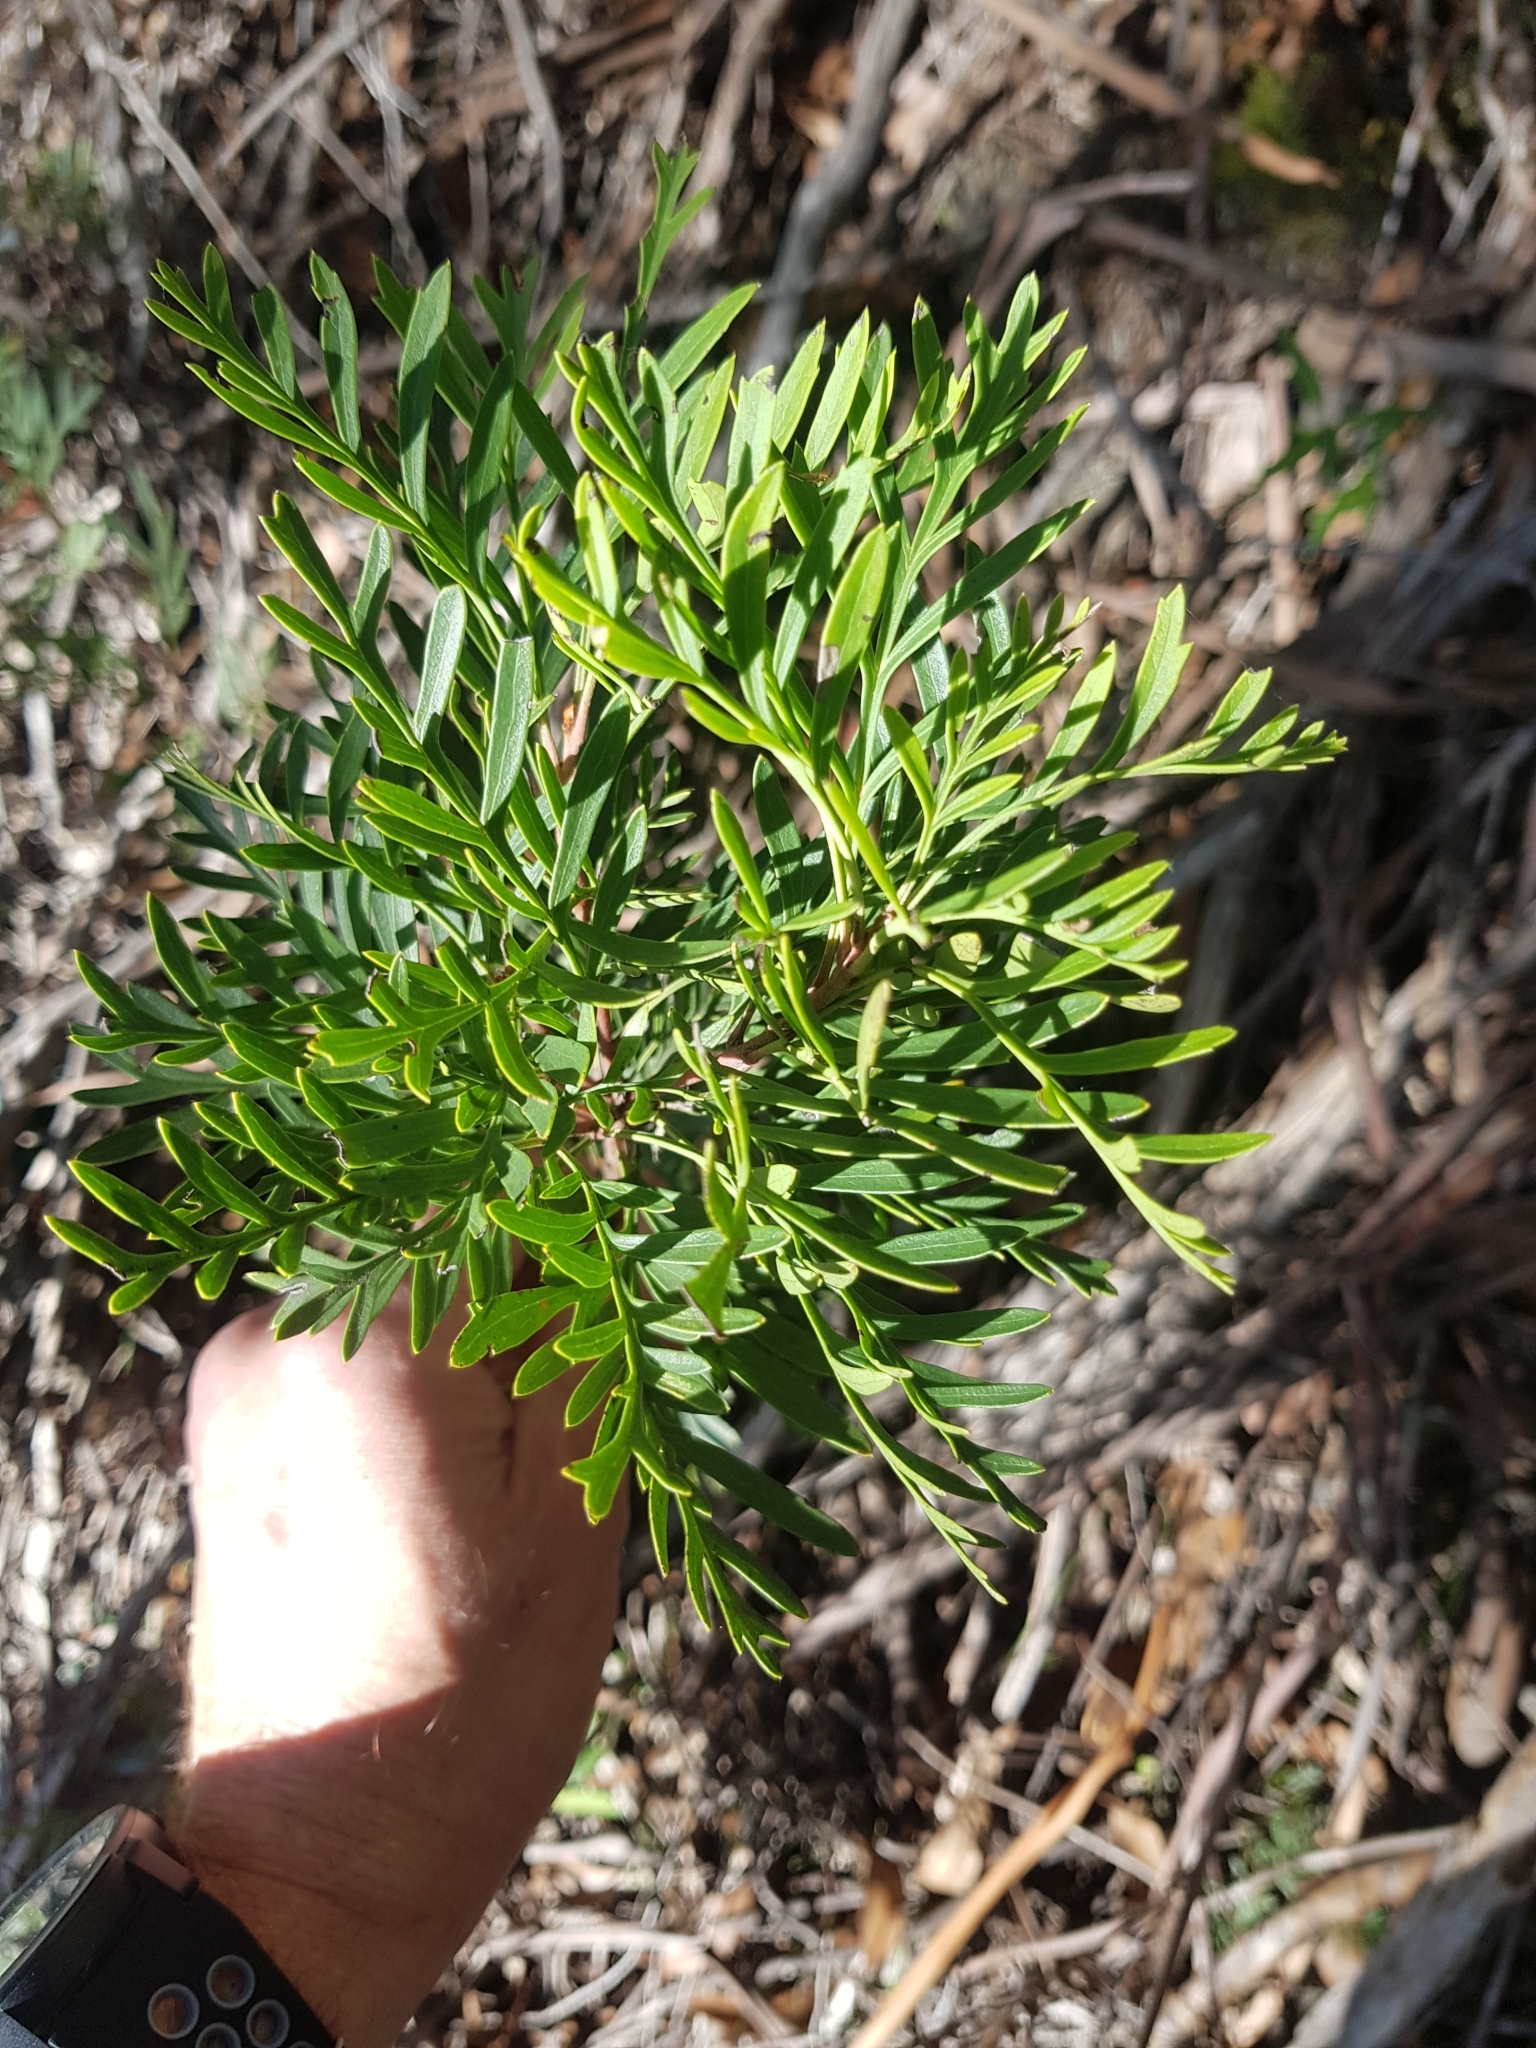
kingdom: Plantae
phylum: Tracheophyta
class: Magnoliopsida
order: Proteales
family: Proteaceae
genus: Lomatia
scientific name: Lomatia tinctoria
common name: Guitar plant
